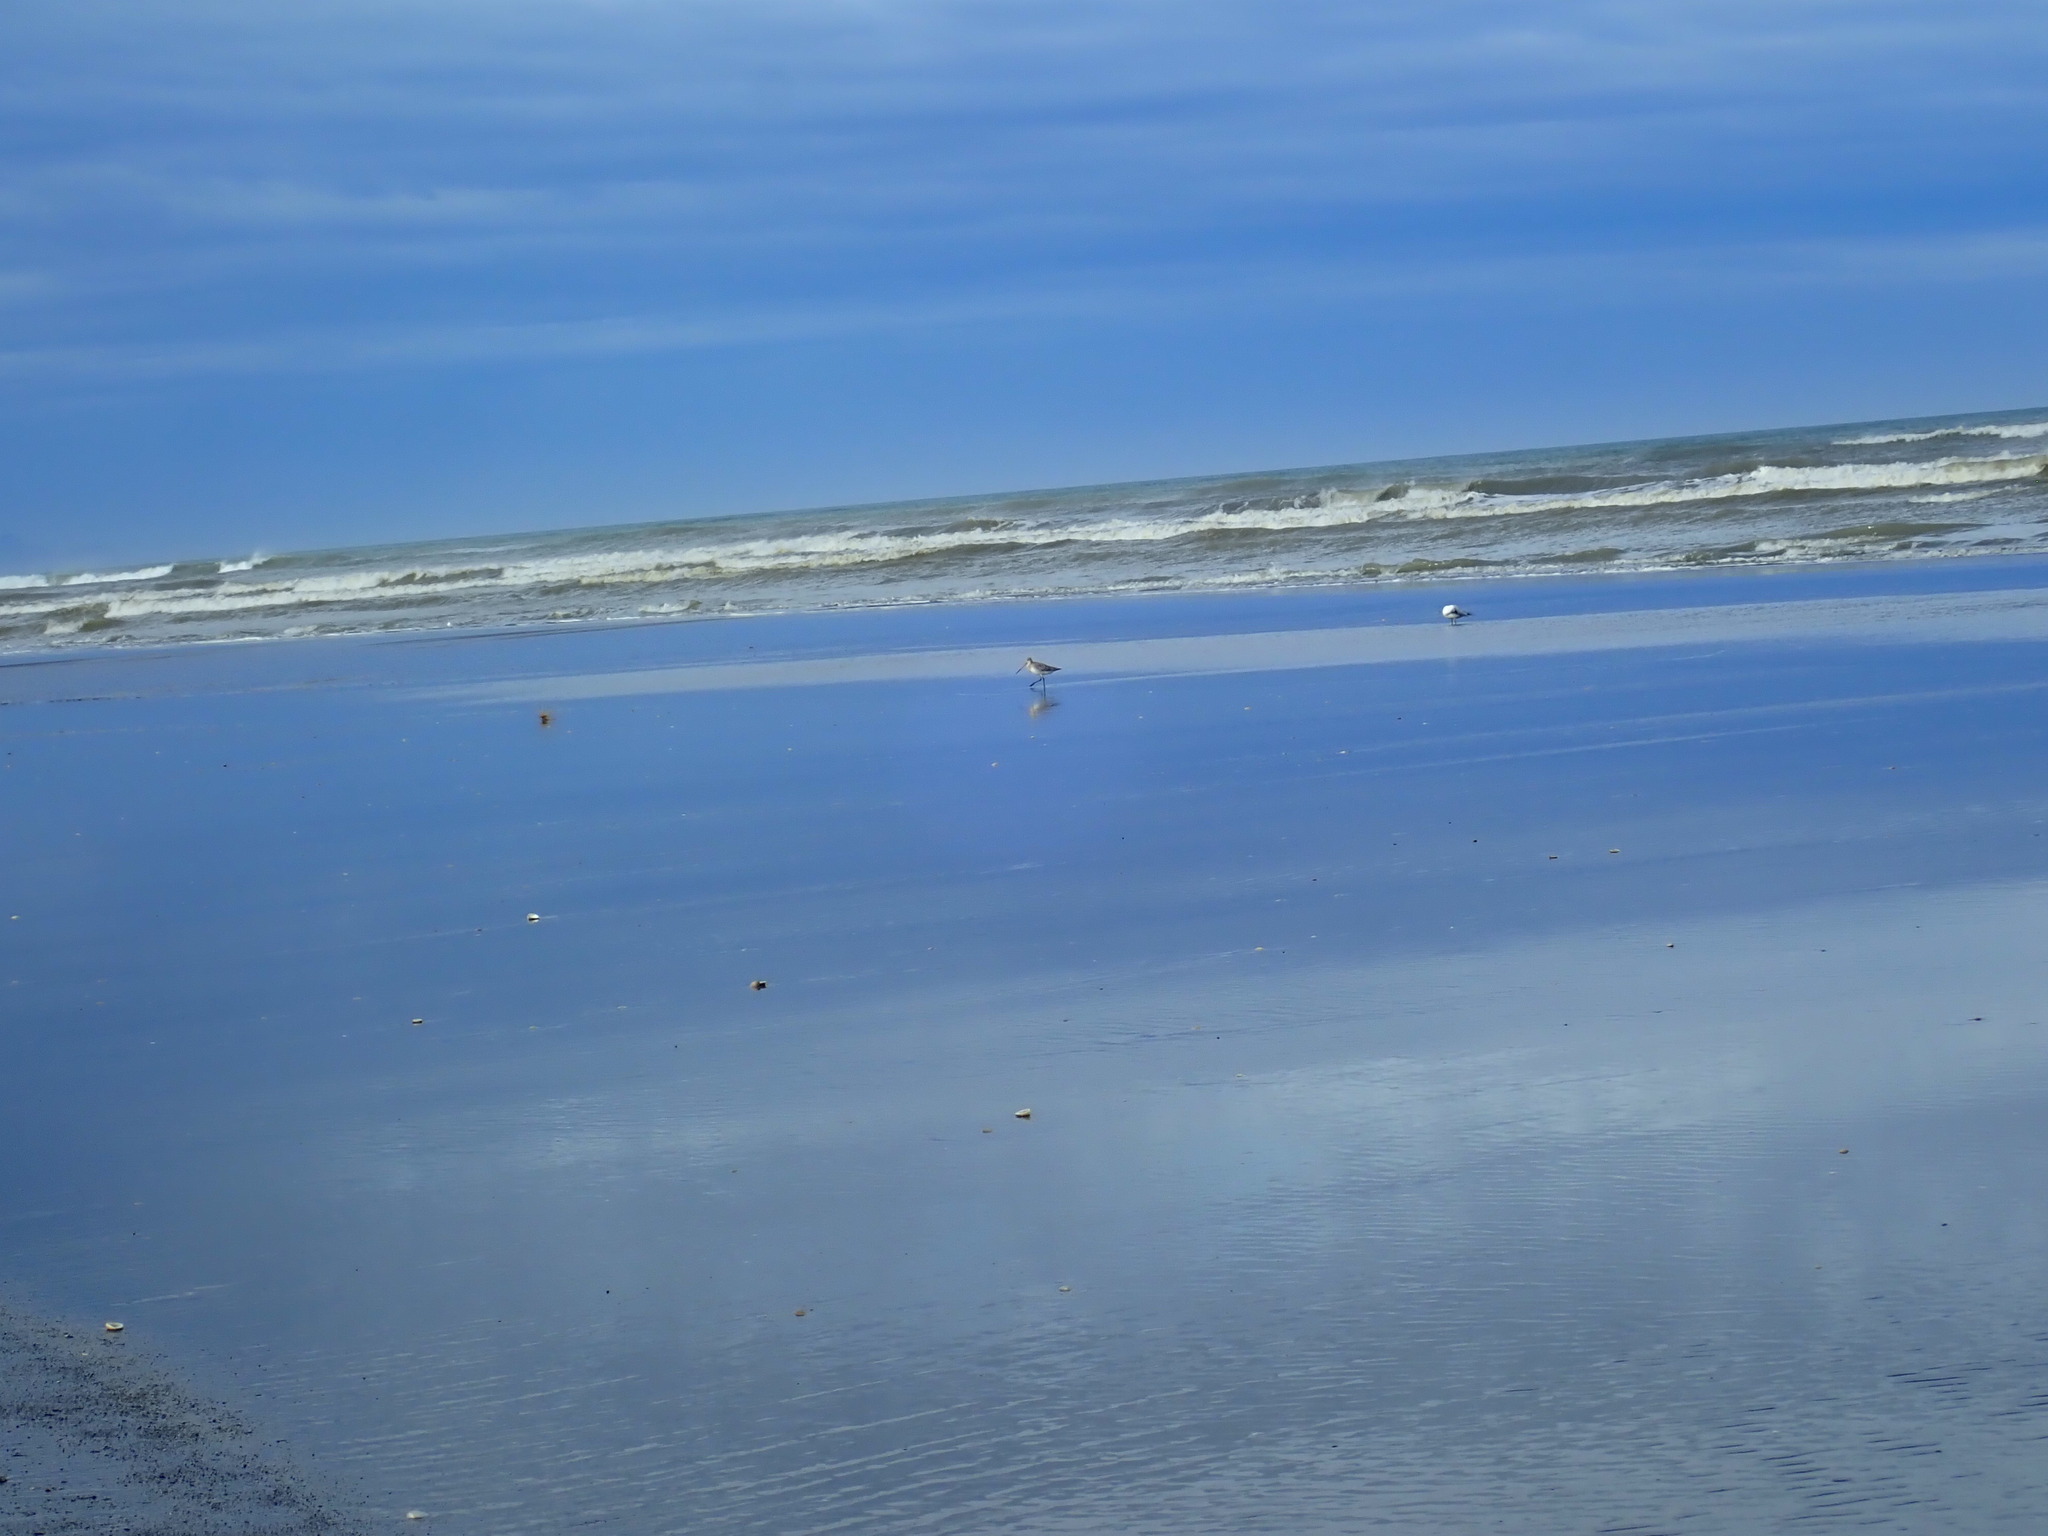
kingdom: Animalia
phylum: Chordata
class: Aves
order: Charadriiformes
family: Scolopacidae
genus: Limosa
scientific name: Limosa lapponica
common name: Bar-tailed godwit
